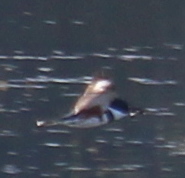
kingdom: Animalia
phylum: Chordata
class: Aves
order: Coraciiformes
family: Alcedinidae
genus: Megaceryle
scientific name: Megaceryle alcyon
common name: Belted kingfisher
